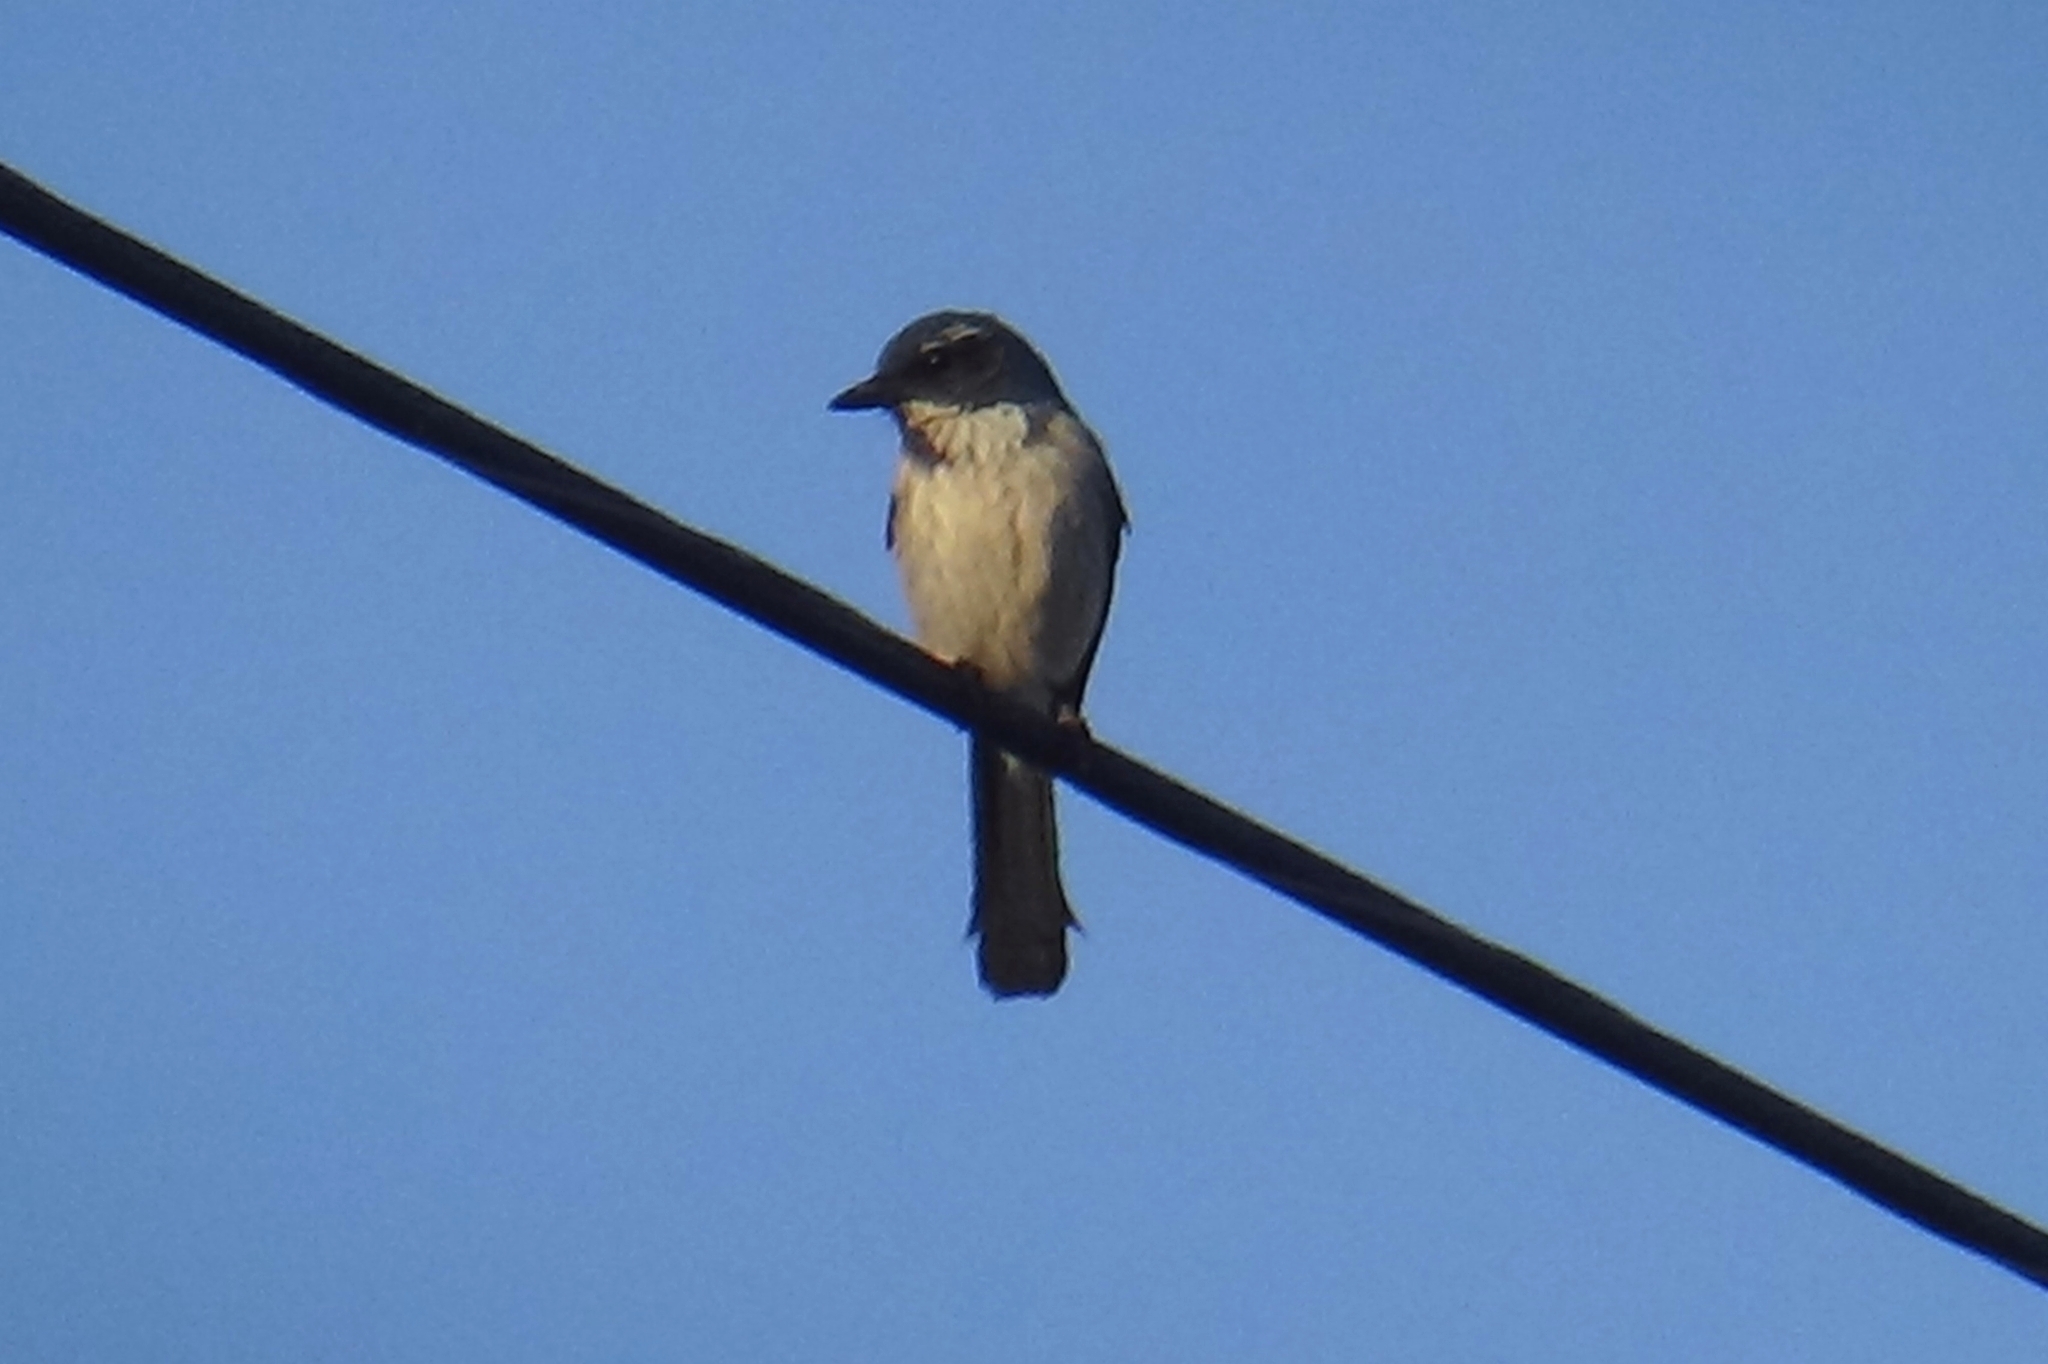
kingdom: Animalia
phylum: Chordata
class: Aves
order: Passeriformes
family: Corvidae
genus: Aphelocoma
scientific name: Aphelocoma californica
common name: California scrub-jay
